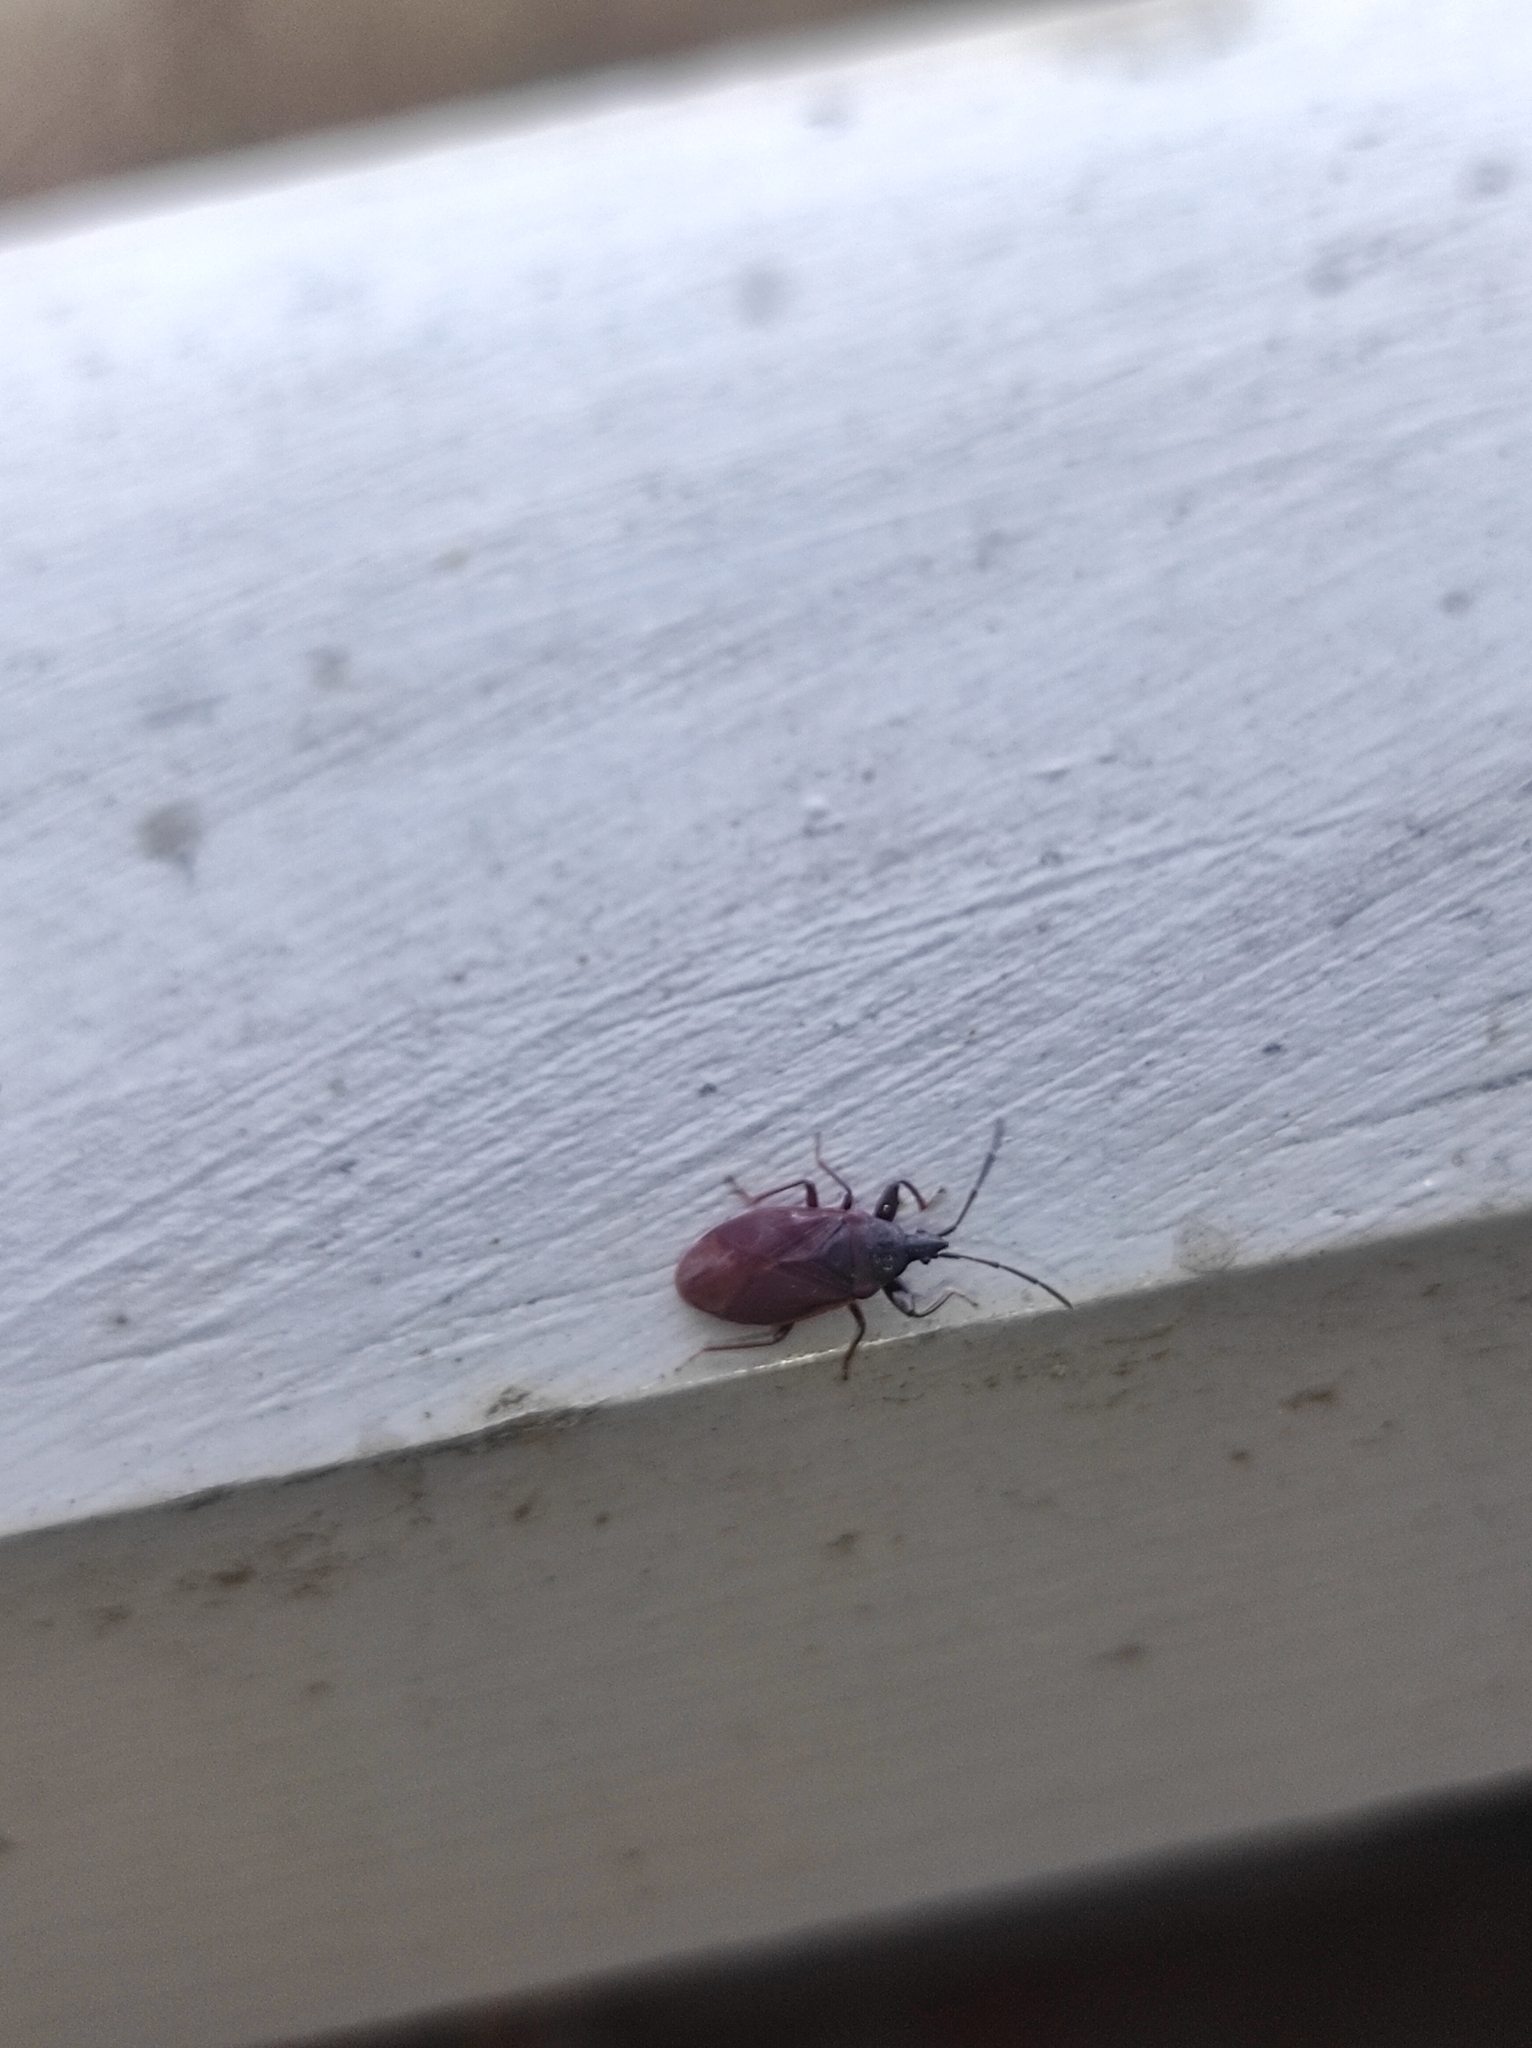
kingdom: Animalia
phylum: Arthropoda
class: Insecta
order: Hemiptera
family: Rhyparochromidae
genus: Gastrodes
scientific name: Gastrodes grossipes
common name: Pine cone bug
